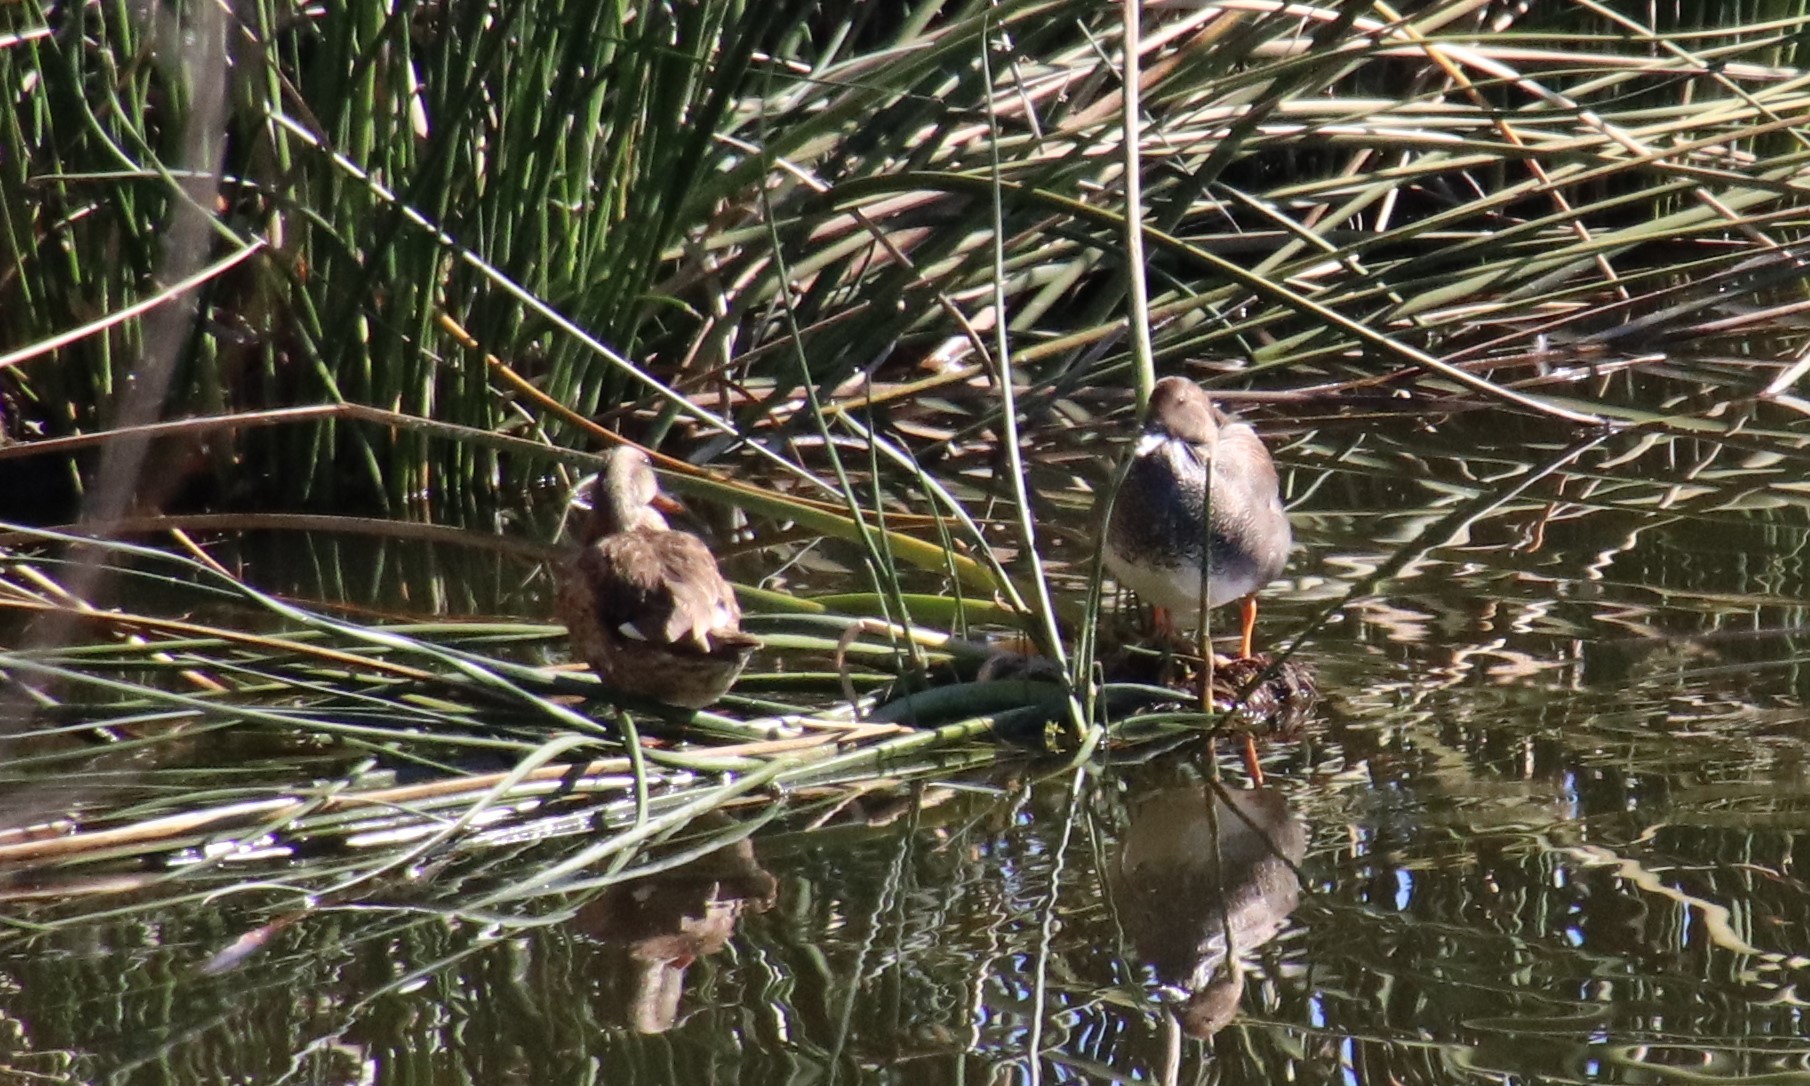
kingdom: Animalia
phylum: Chordata
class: Aves
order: Anseriformes
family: Anatidae
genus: Mareca
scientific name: Mareca strepera
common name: Gadwall
